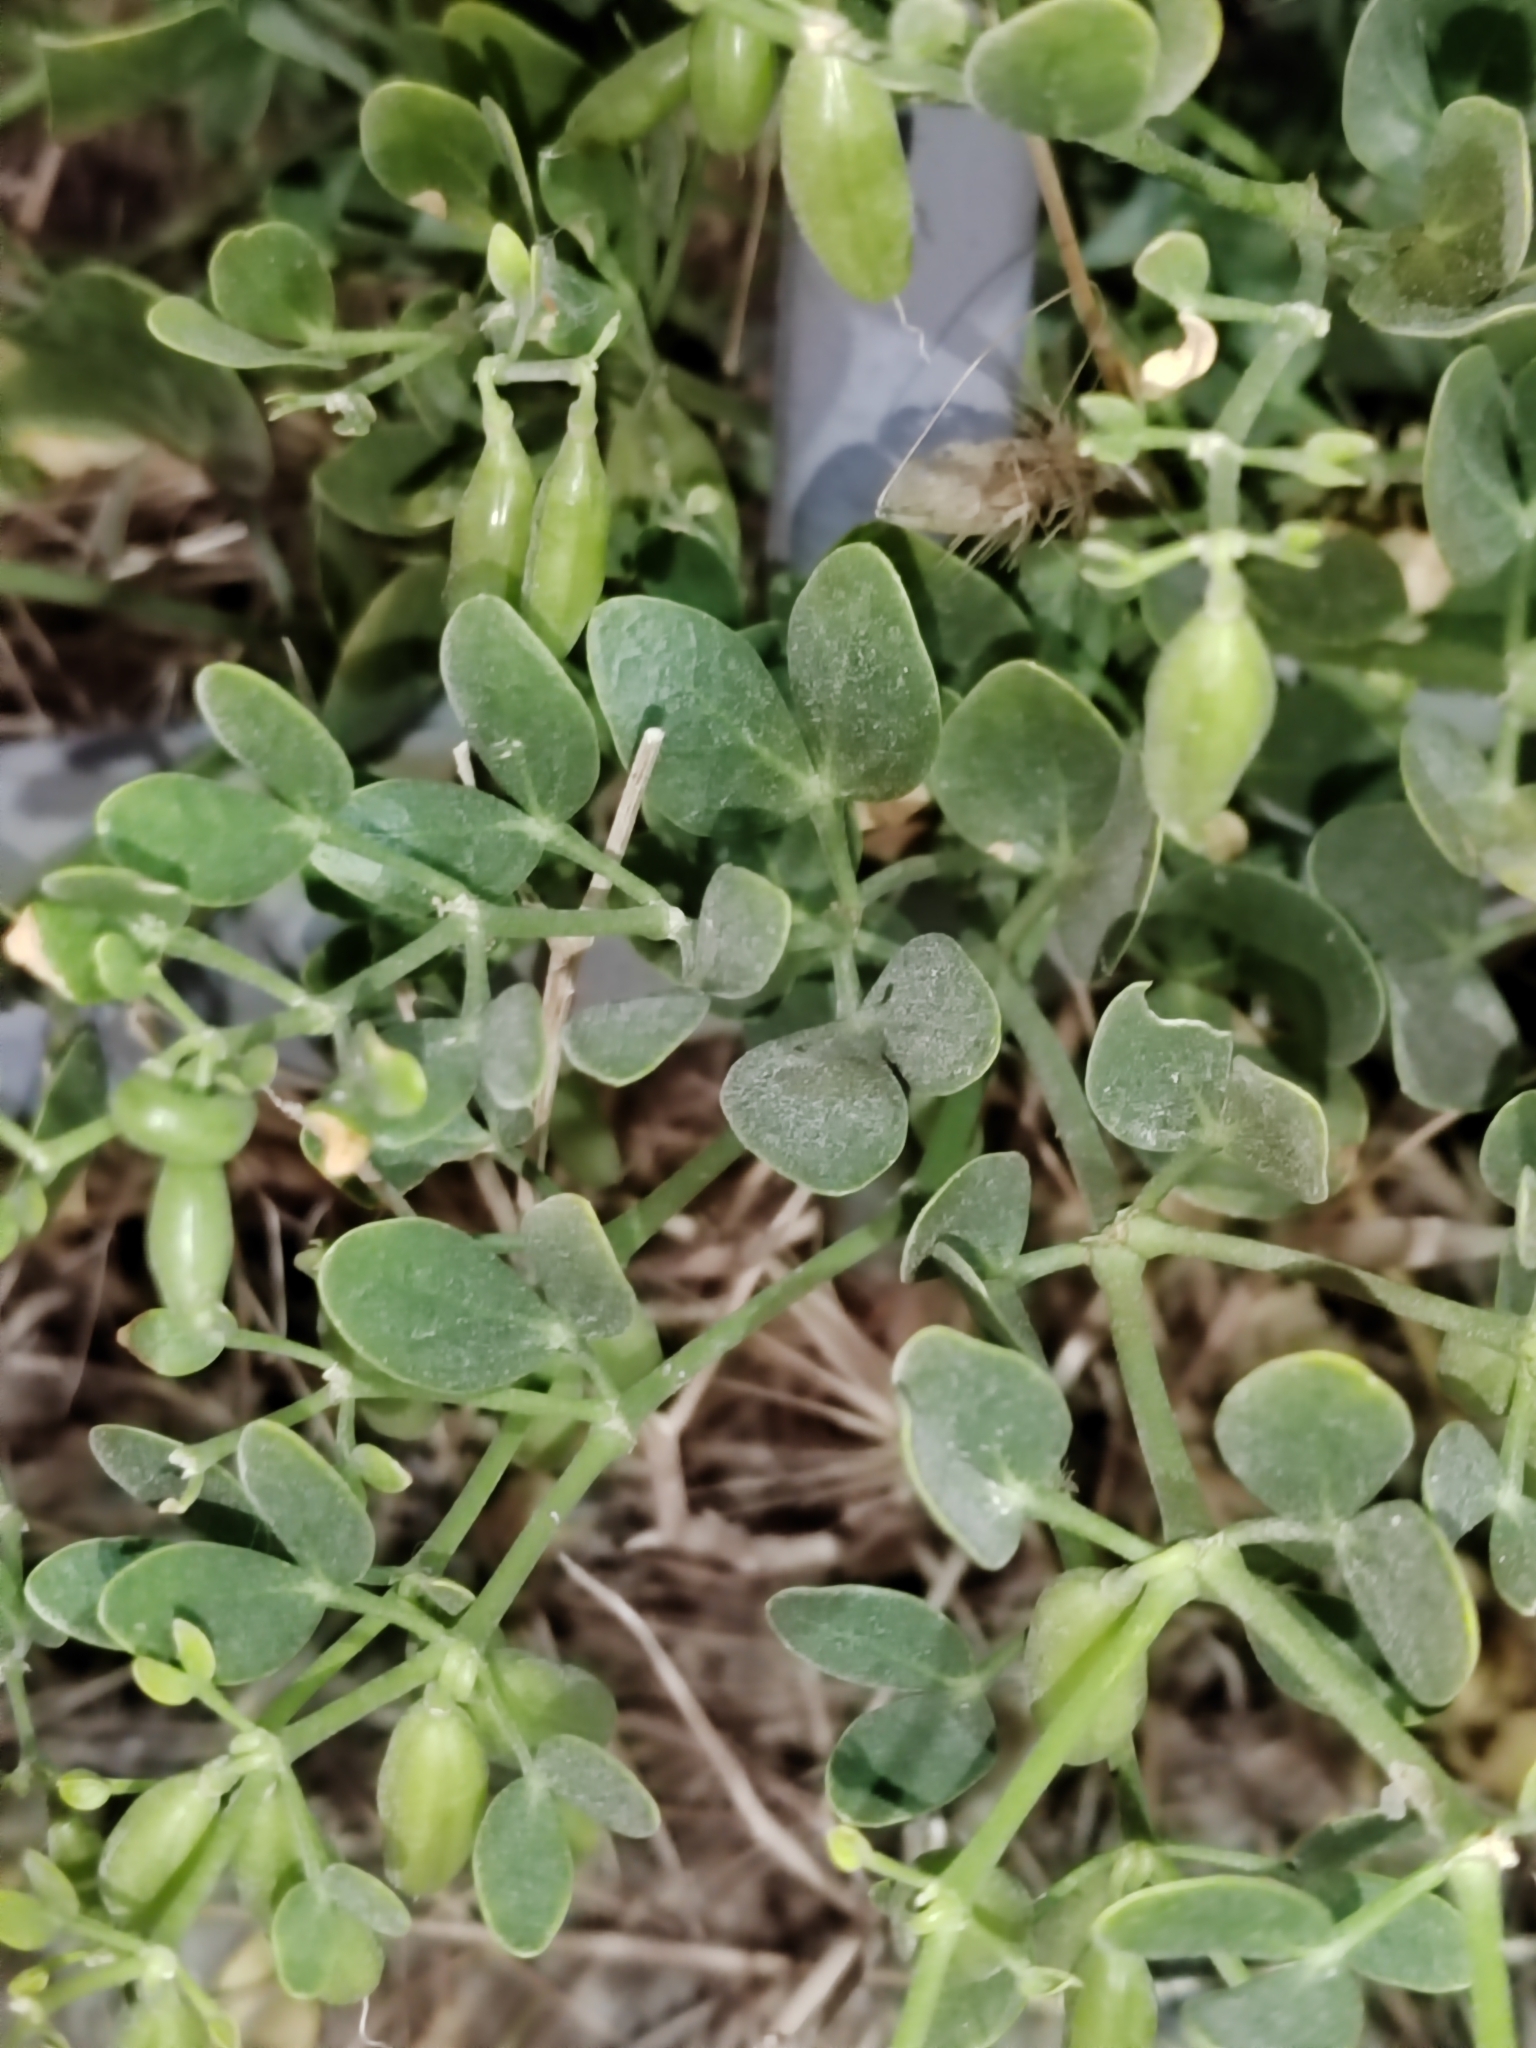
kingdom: Plantae
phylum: Tracheophyta
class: Magnoliopsida
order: Zygophyllales
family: Zygophyllaceae
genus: Zygophyllum
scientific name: Zygophyllum fabago
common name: Syrian beancaper
